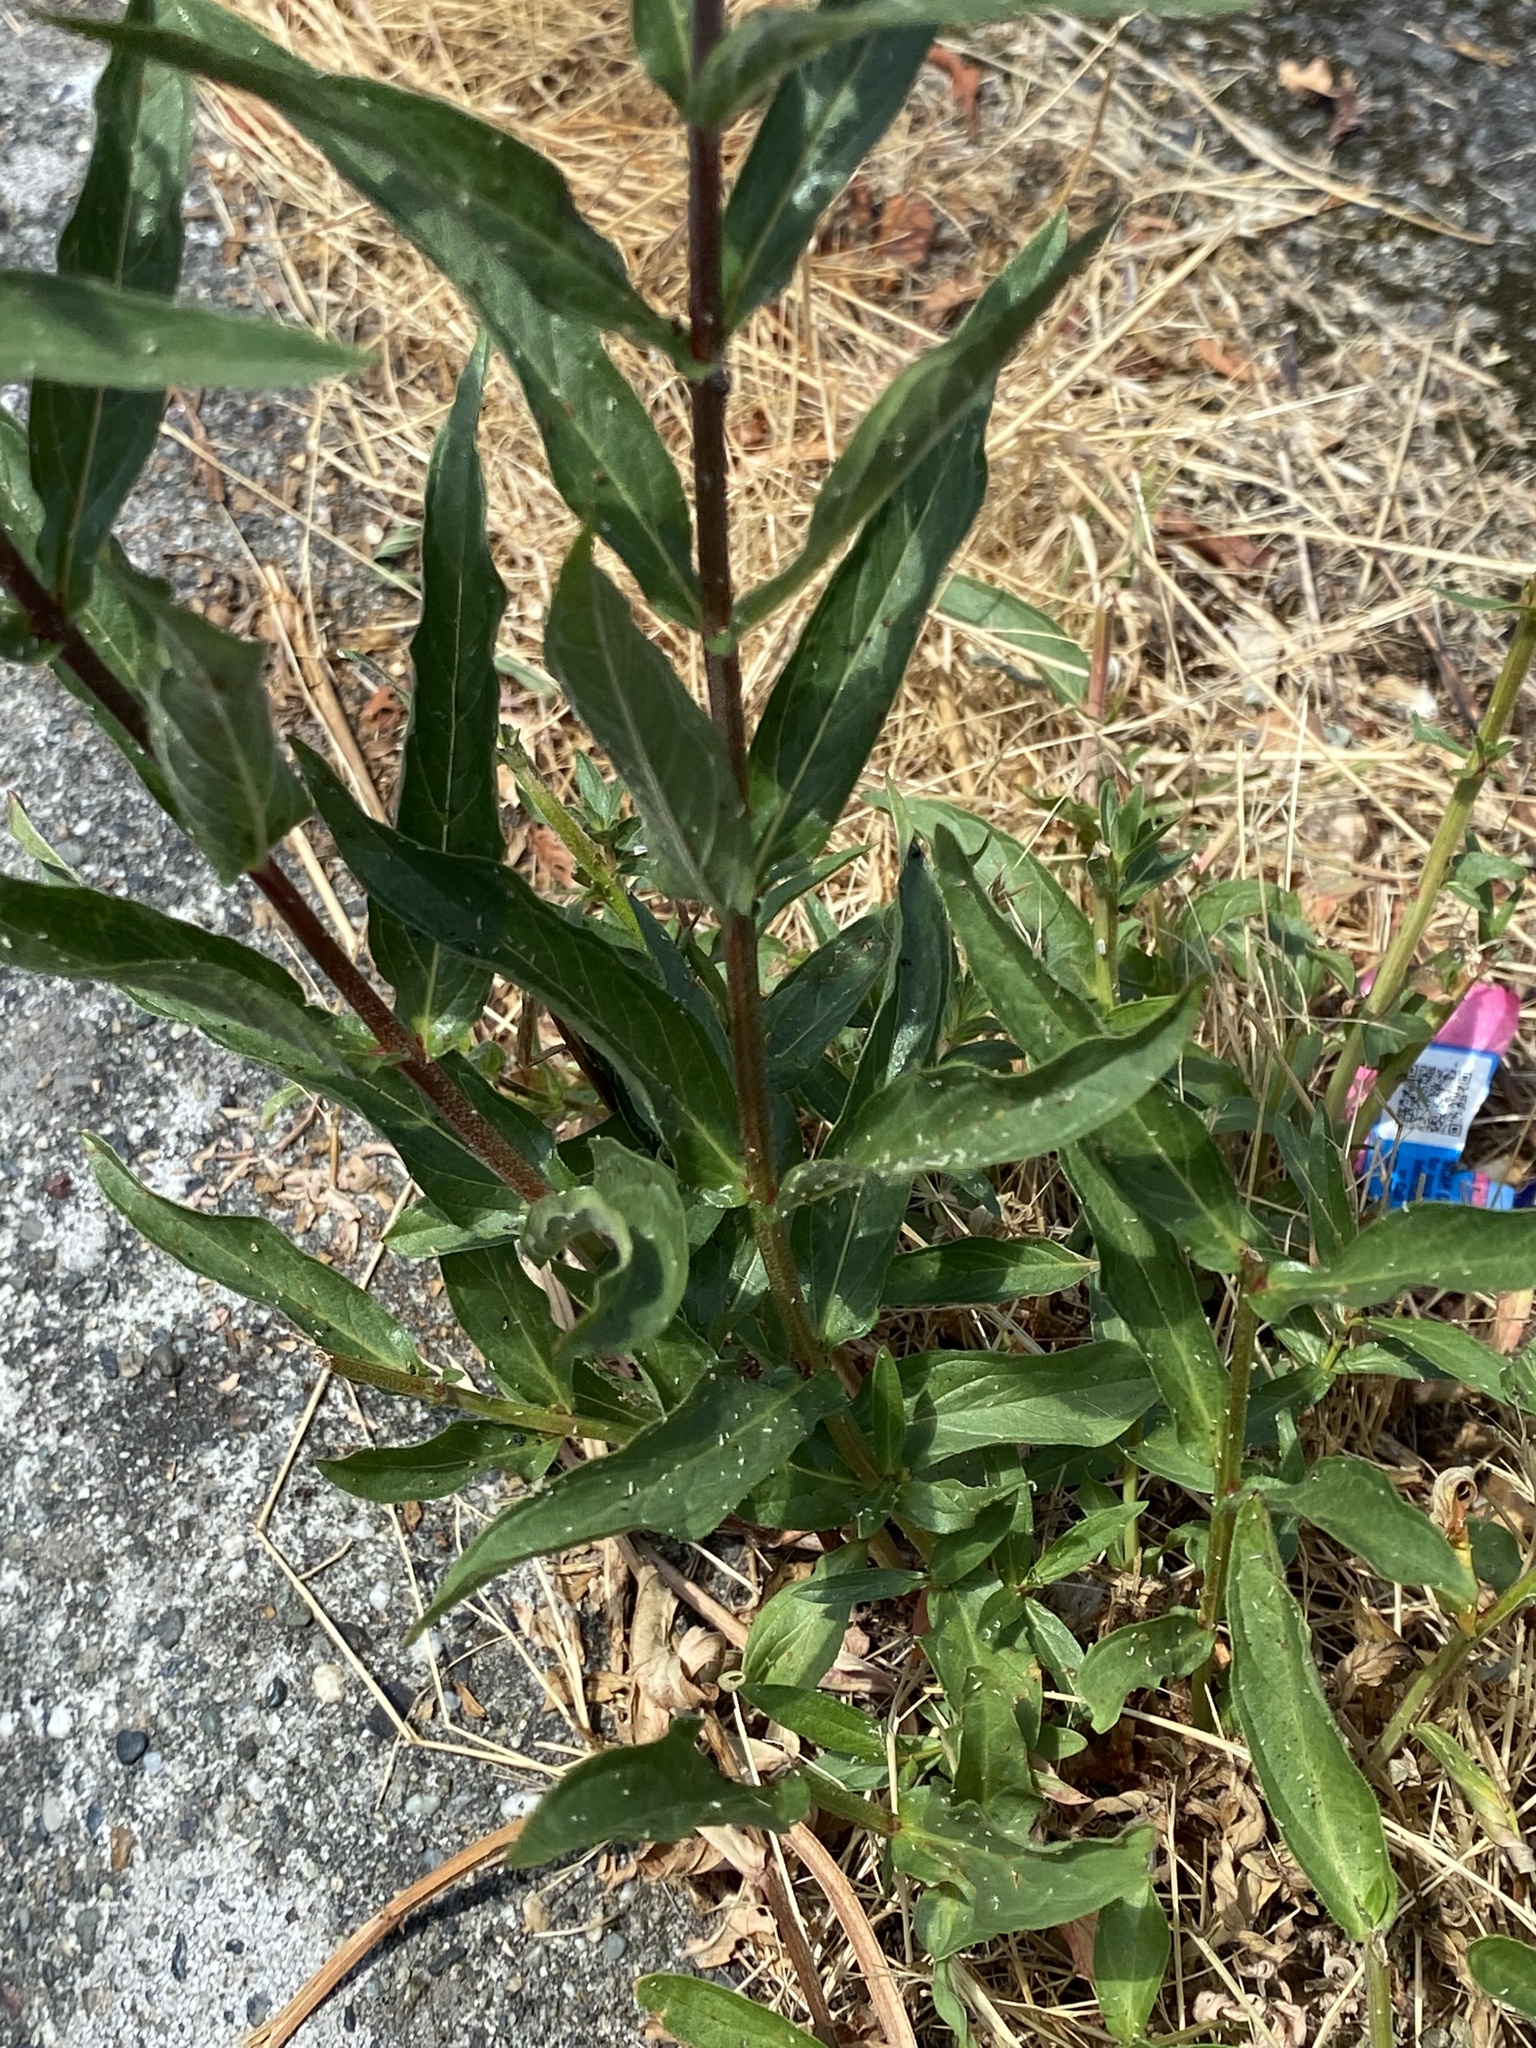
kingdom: Plantae
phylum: Tracheophyta
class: Magnoliopsida
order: Myrtales
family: Lythraceae
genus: Lythrum
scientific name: Lythrum salicaria
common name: Purple loosestrife
